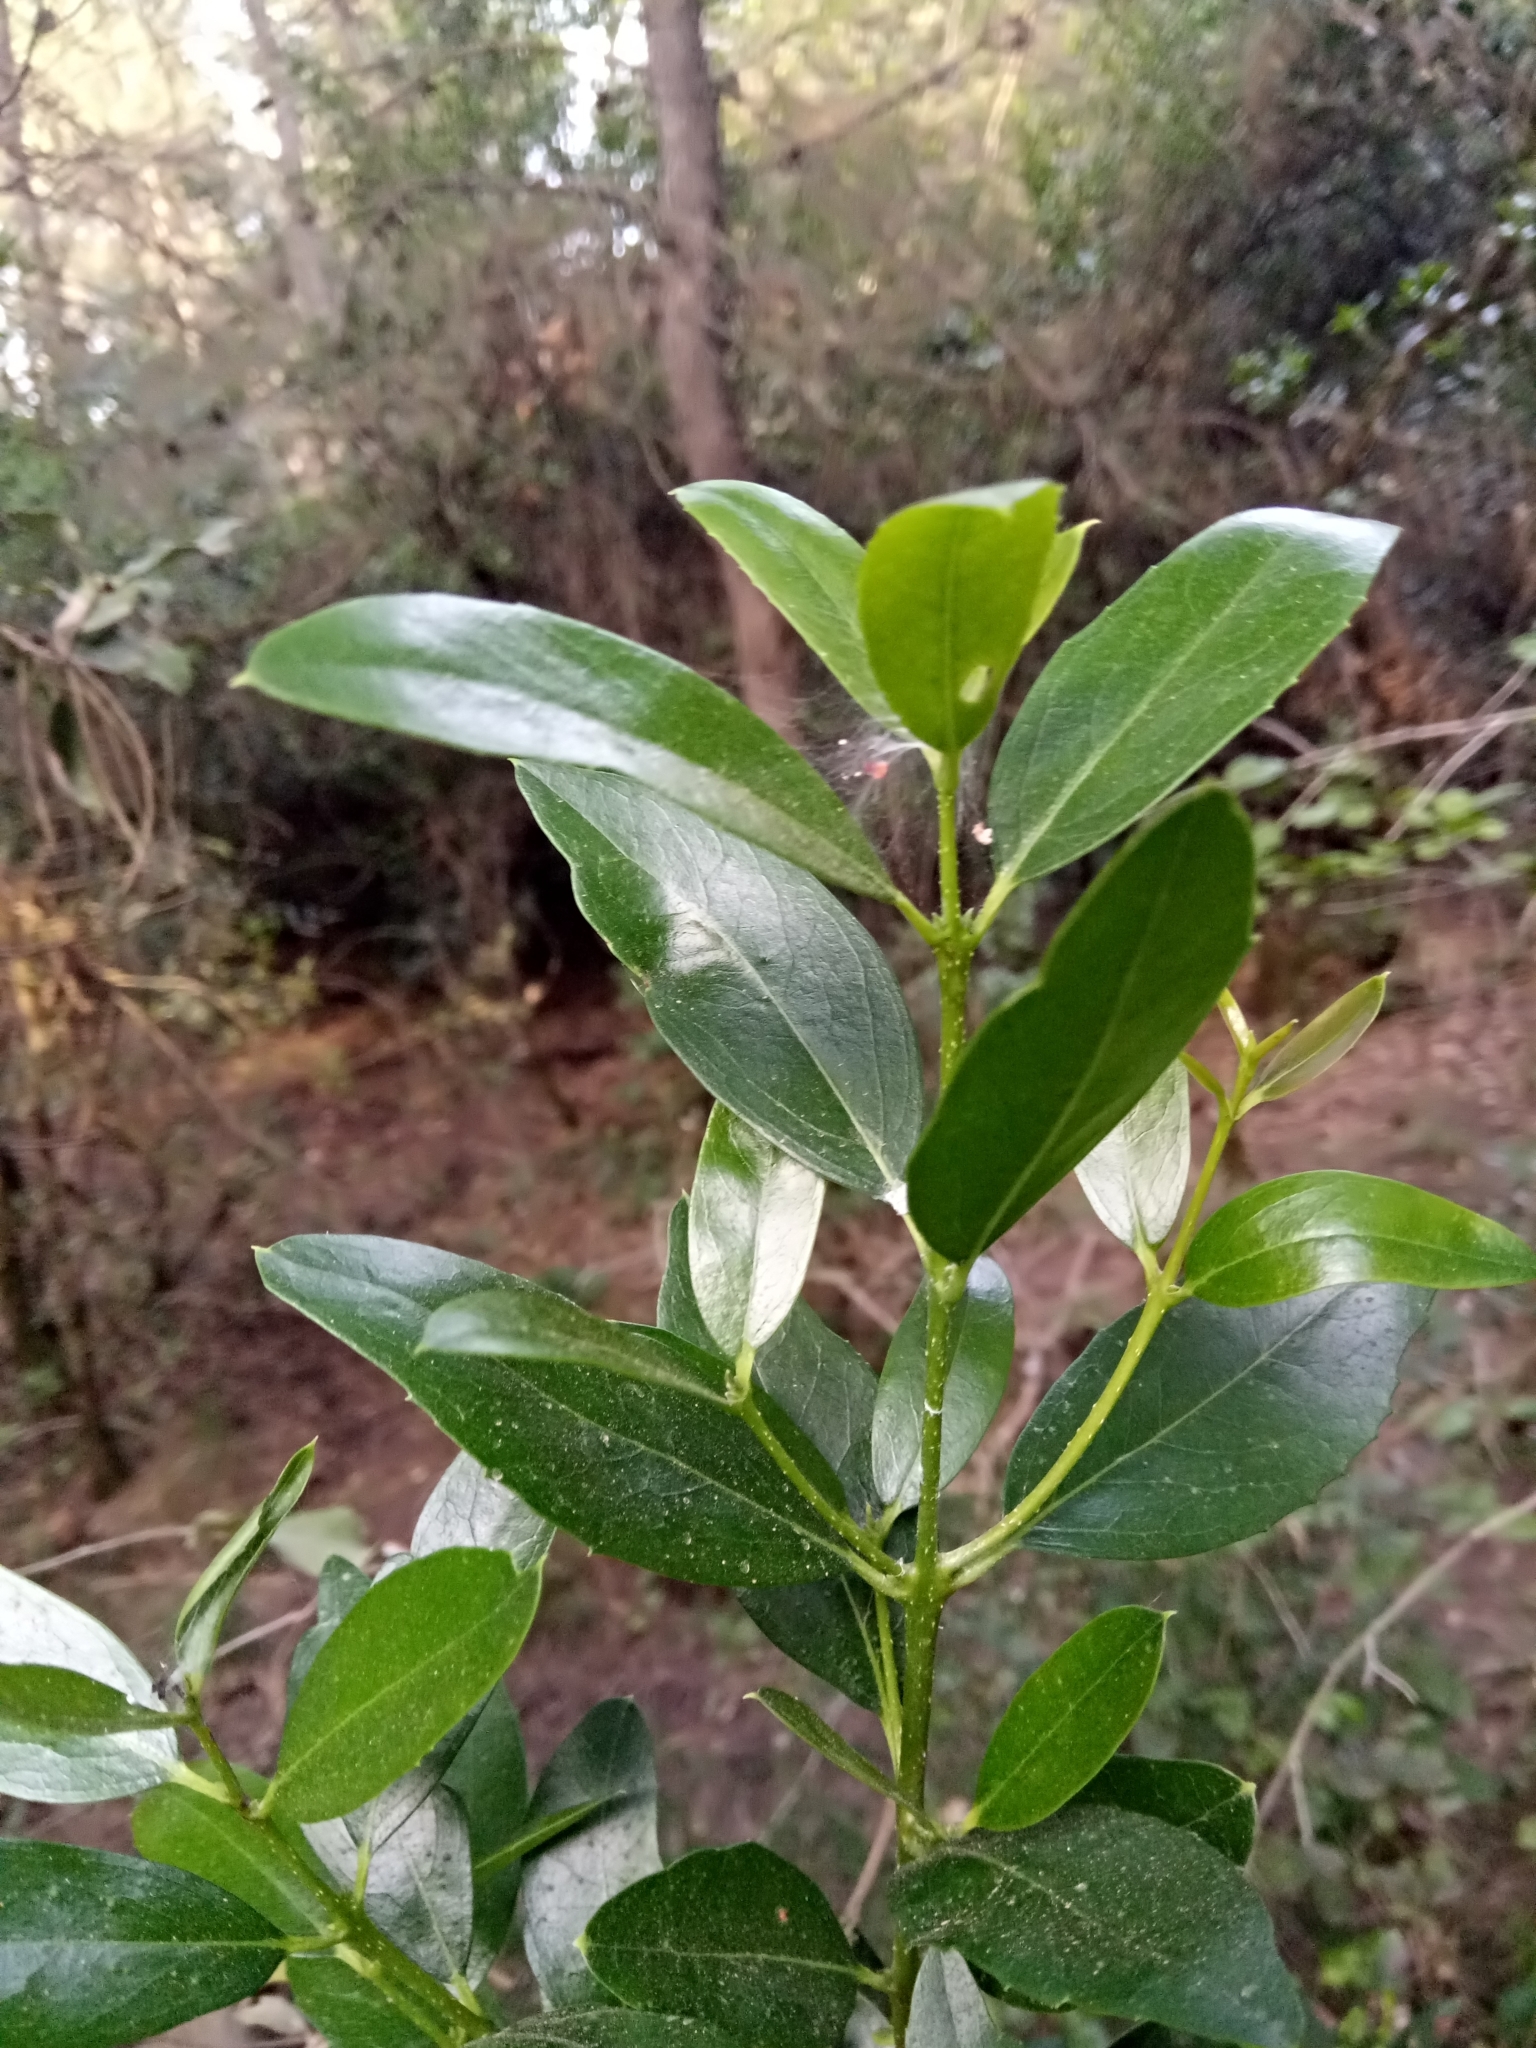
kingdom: Plantae
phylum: Tracheophyta
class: Magnoliopsida
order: Lamiales
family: Oleaceae
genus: Phillyrea
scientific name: Phillyrea latifolia
